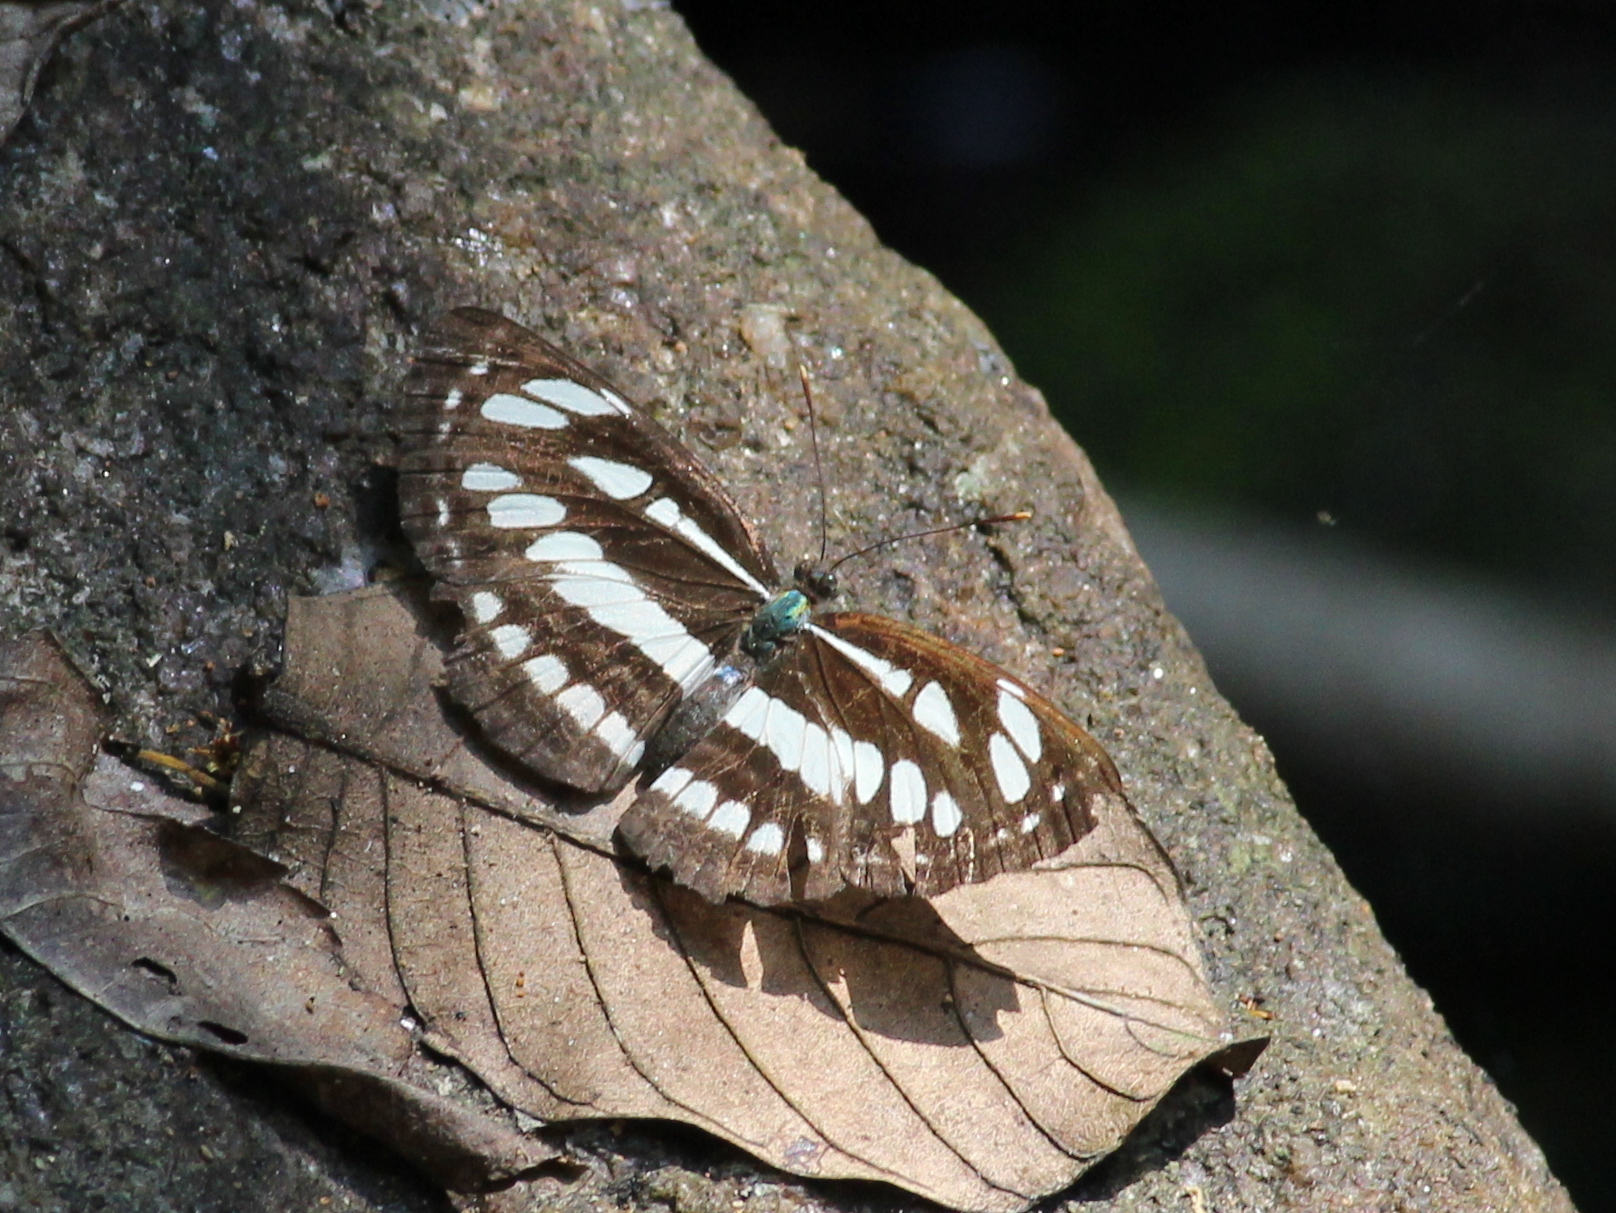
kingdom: Animalia
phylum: Arthropoda
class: Insecta
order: Lepidoptera
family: Nymphalidae
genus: Neptis
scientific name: Neptis hylas
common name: Common sailer
